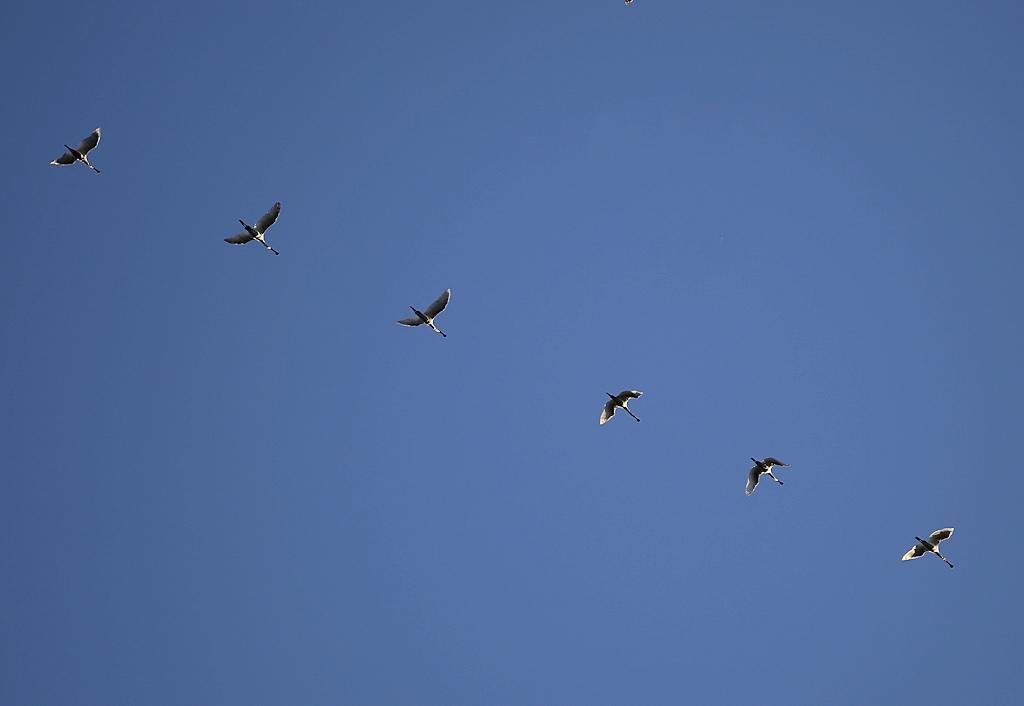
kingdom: Animalia
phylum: Chordata
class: Aves
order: Pelecaniformes
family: Threskiornithidae
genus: Platalea
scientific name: Platalea alba
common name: African spoonbill
